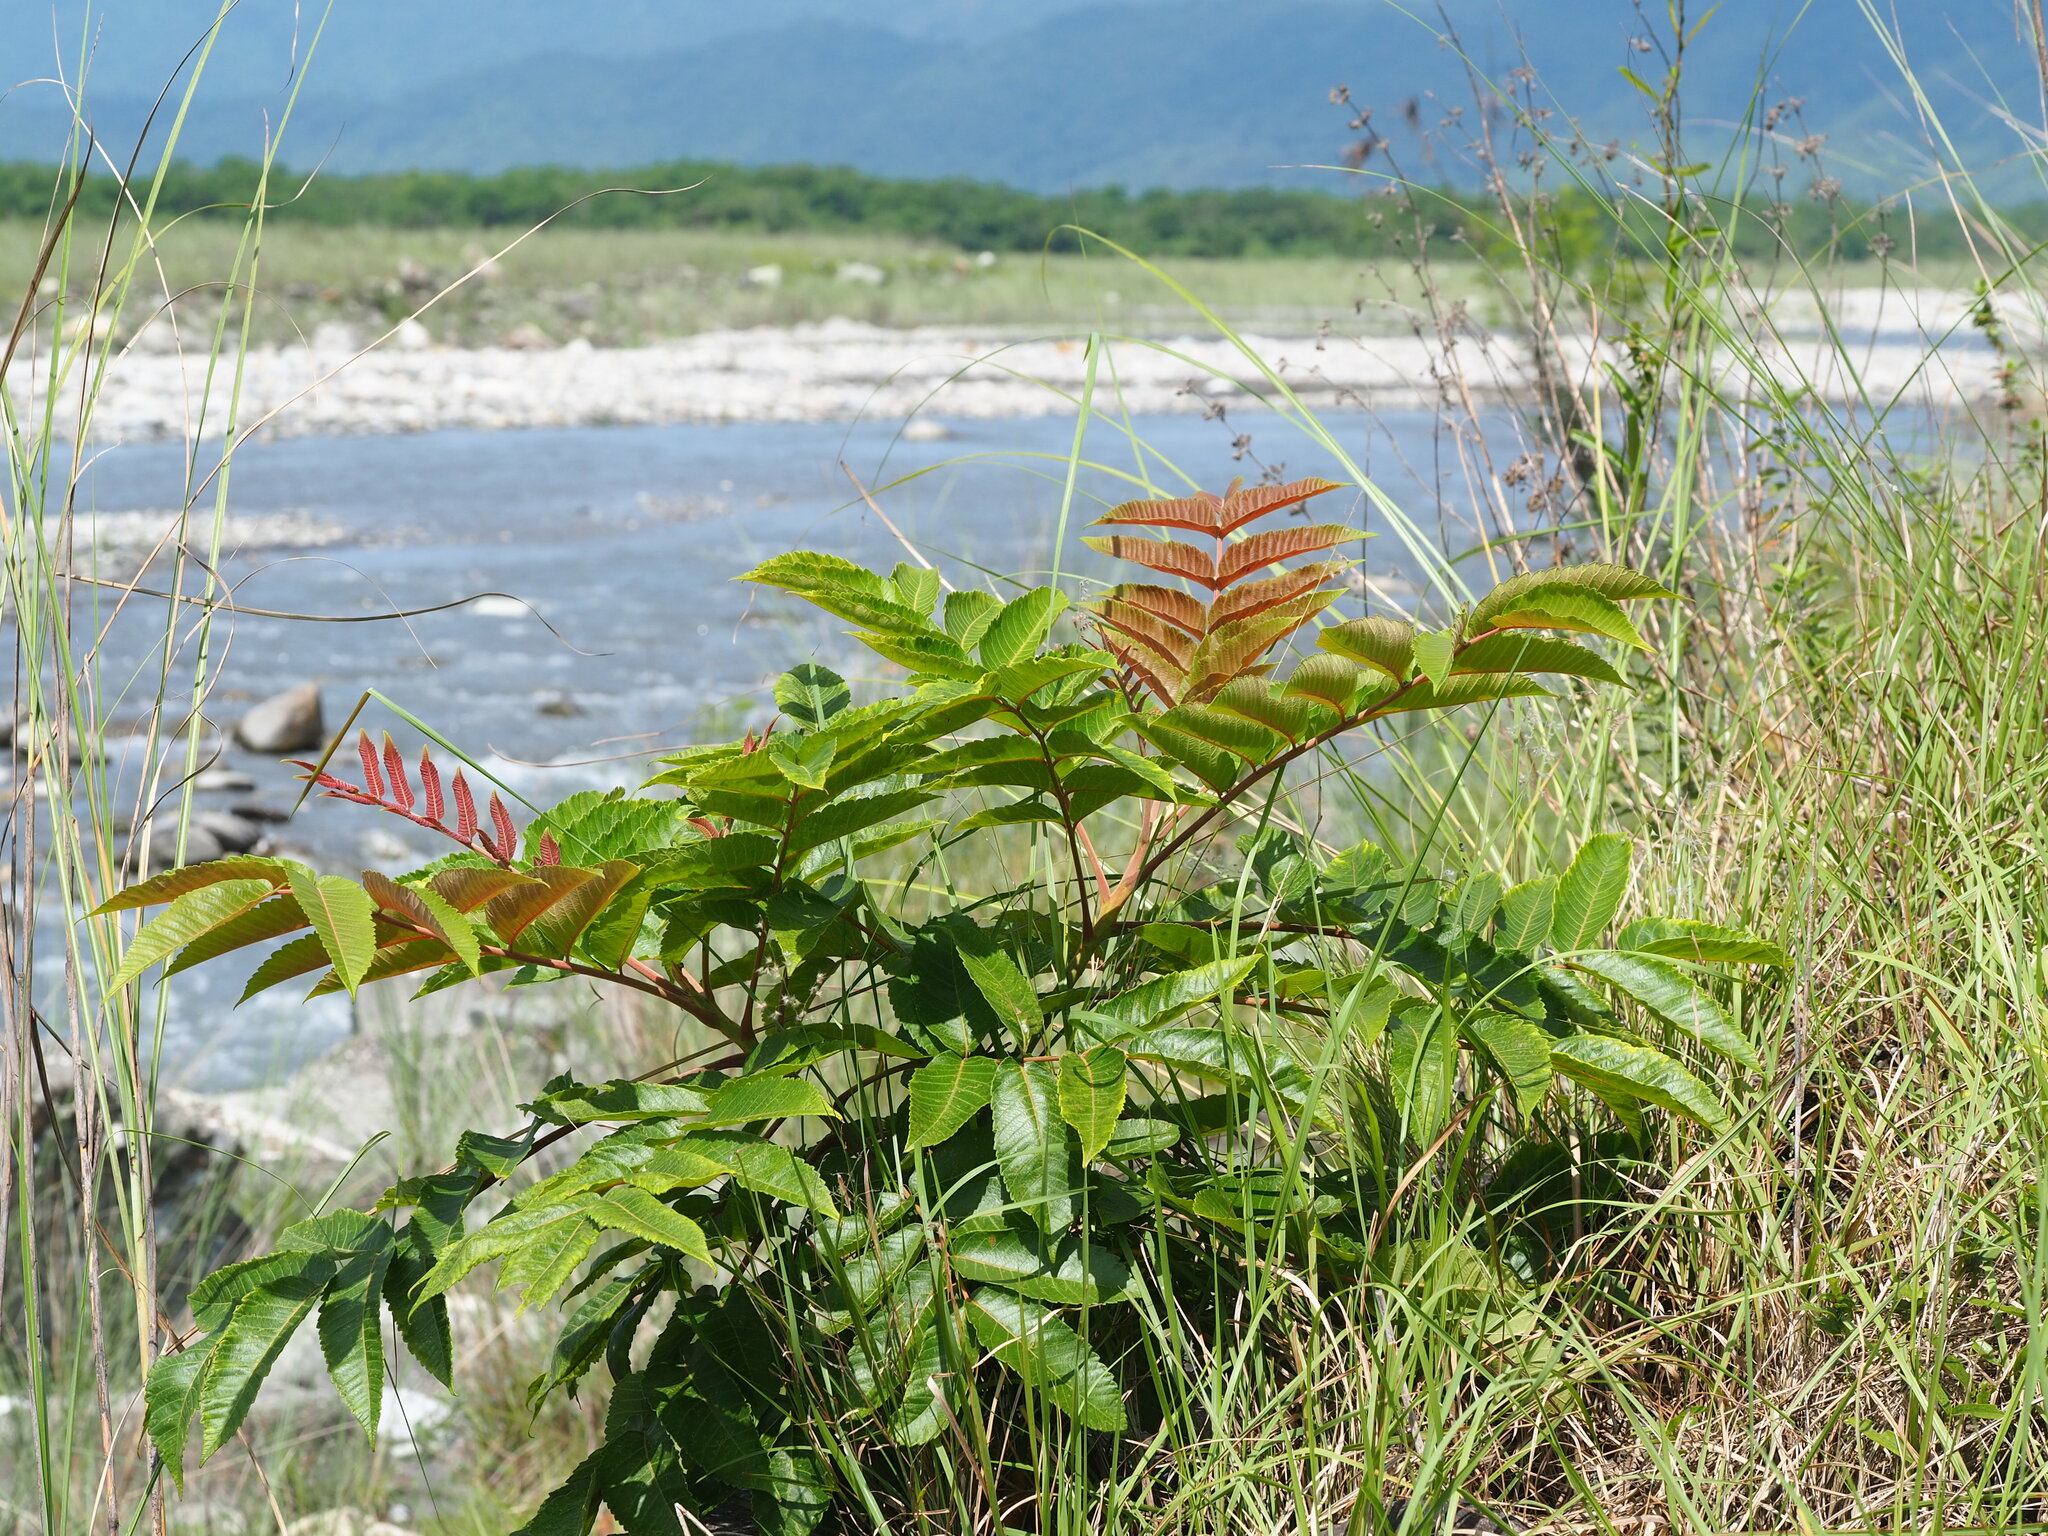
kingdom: Plantae
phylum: Tracheophyta
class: Magnoliopsida
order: Sapindales
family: Anacardiaceae
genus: Rhus
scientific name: Rhus chinensis
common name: Chinese gall
